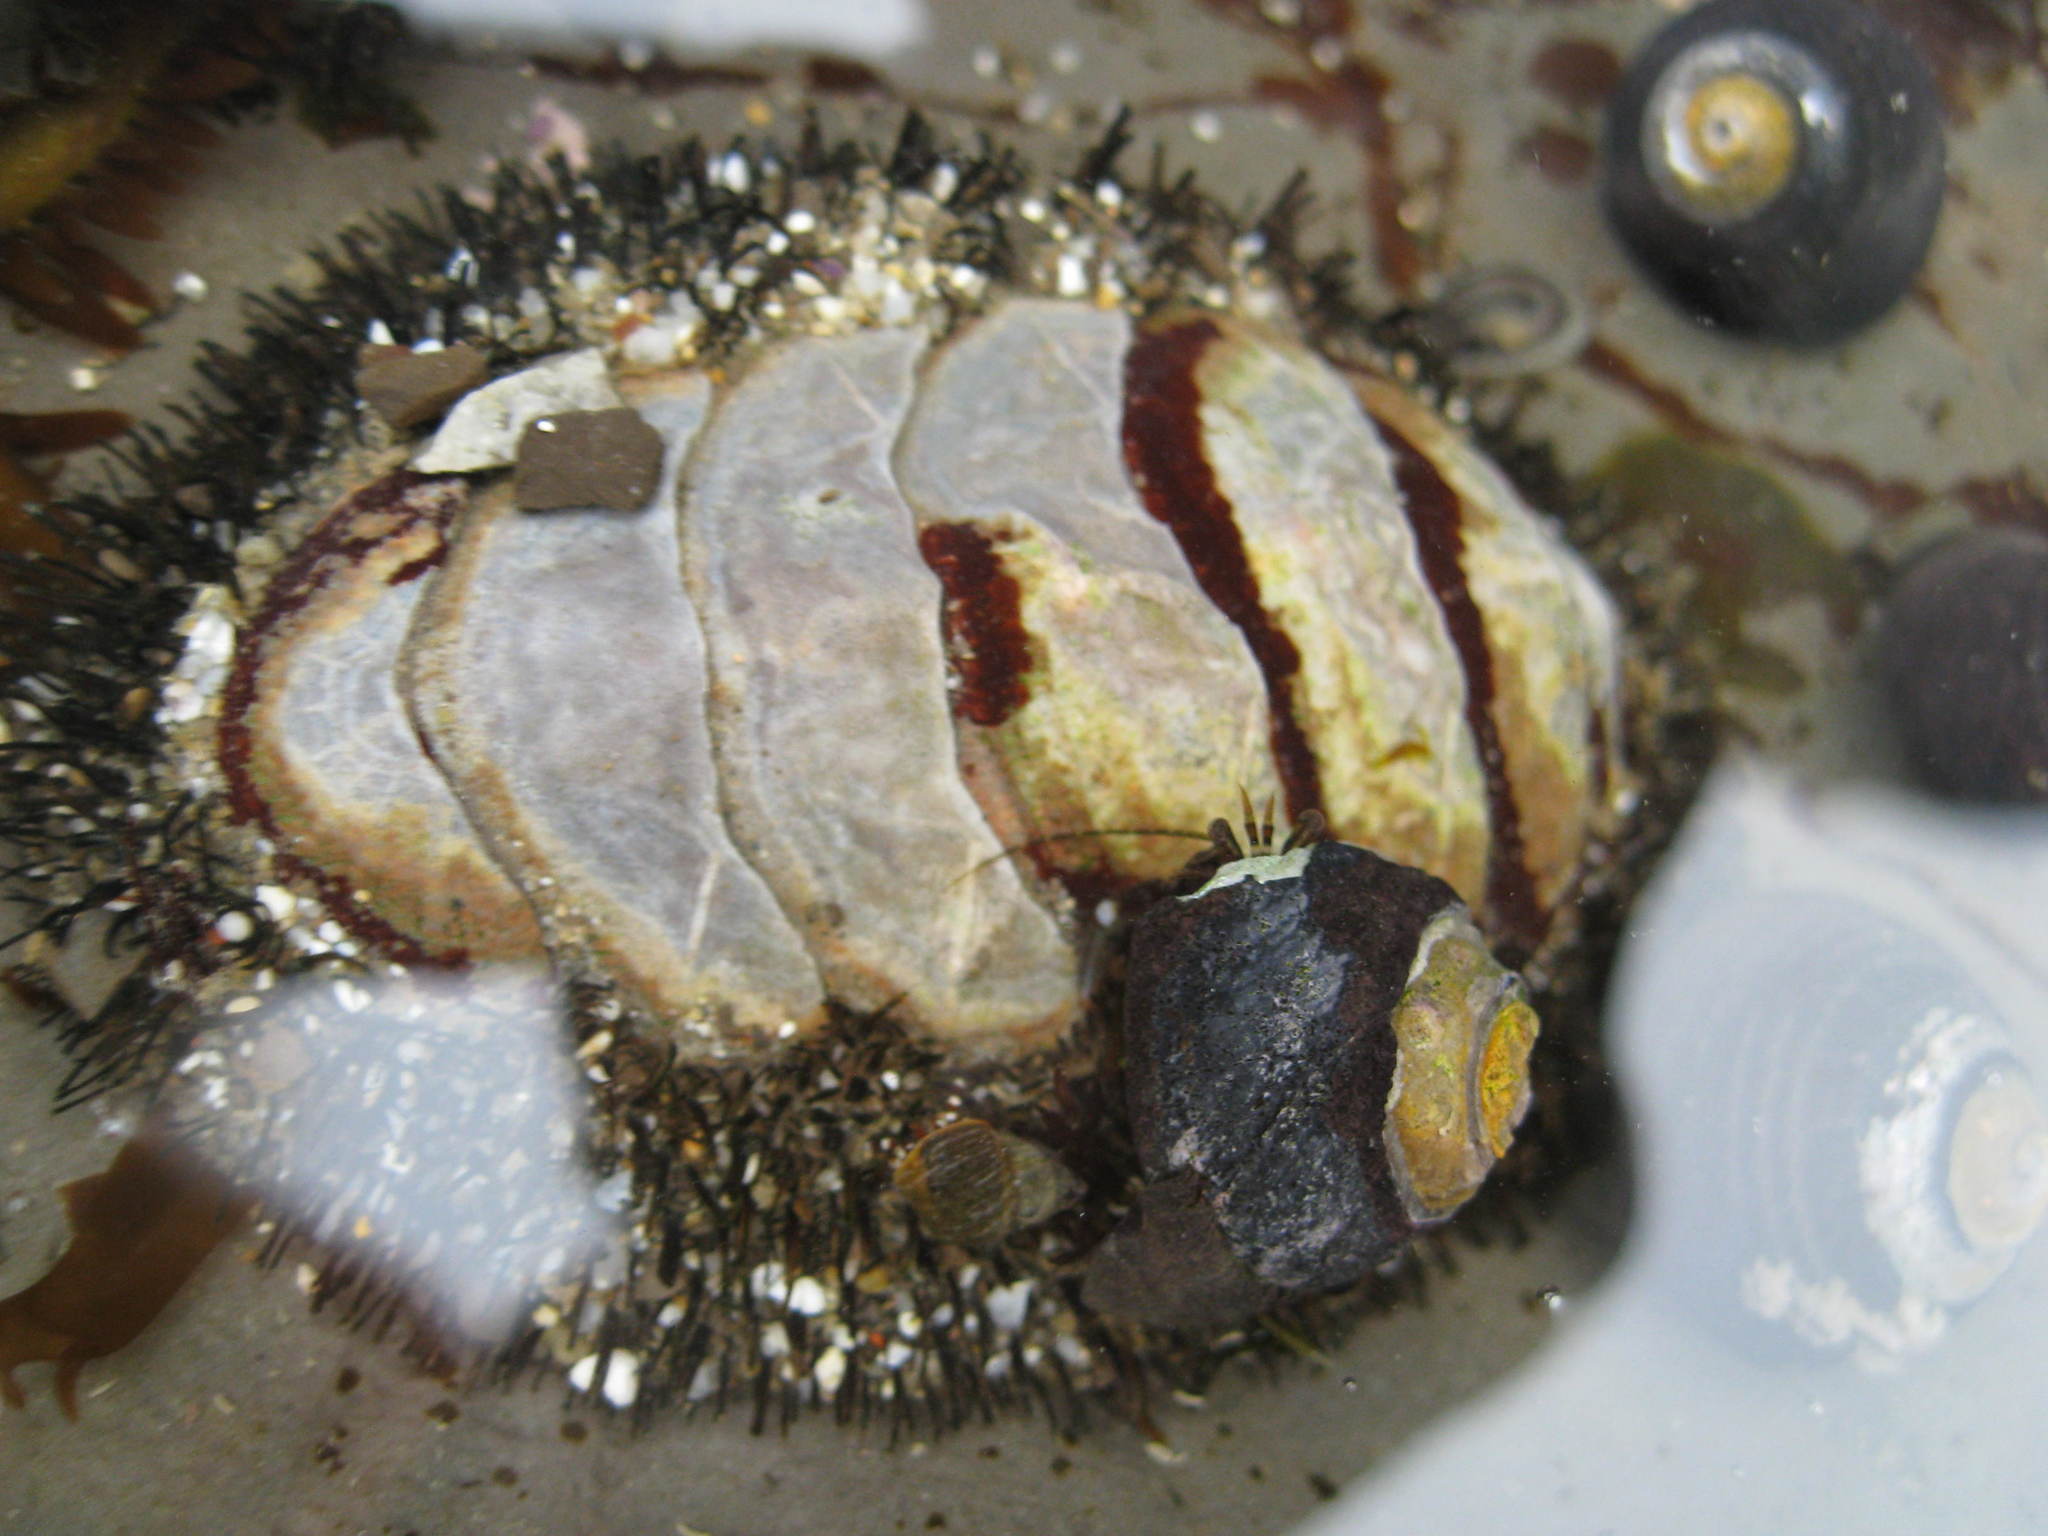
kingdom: Animalia
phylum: Mollusca
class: Polyplacophora
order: Chitonida
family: Mopaliidae
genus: Mopalia
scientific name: Mopalia muscosa
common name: Mossy chiton
